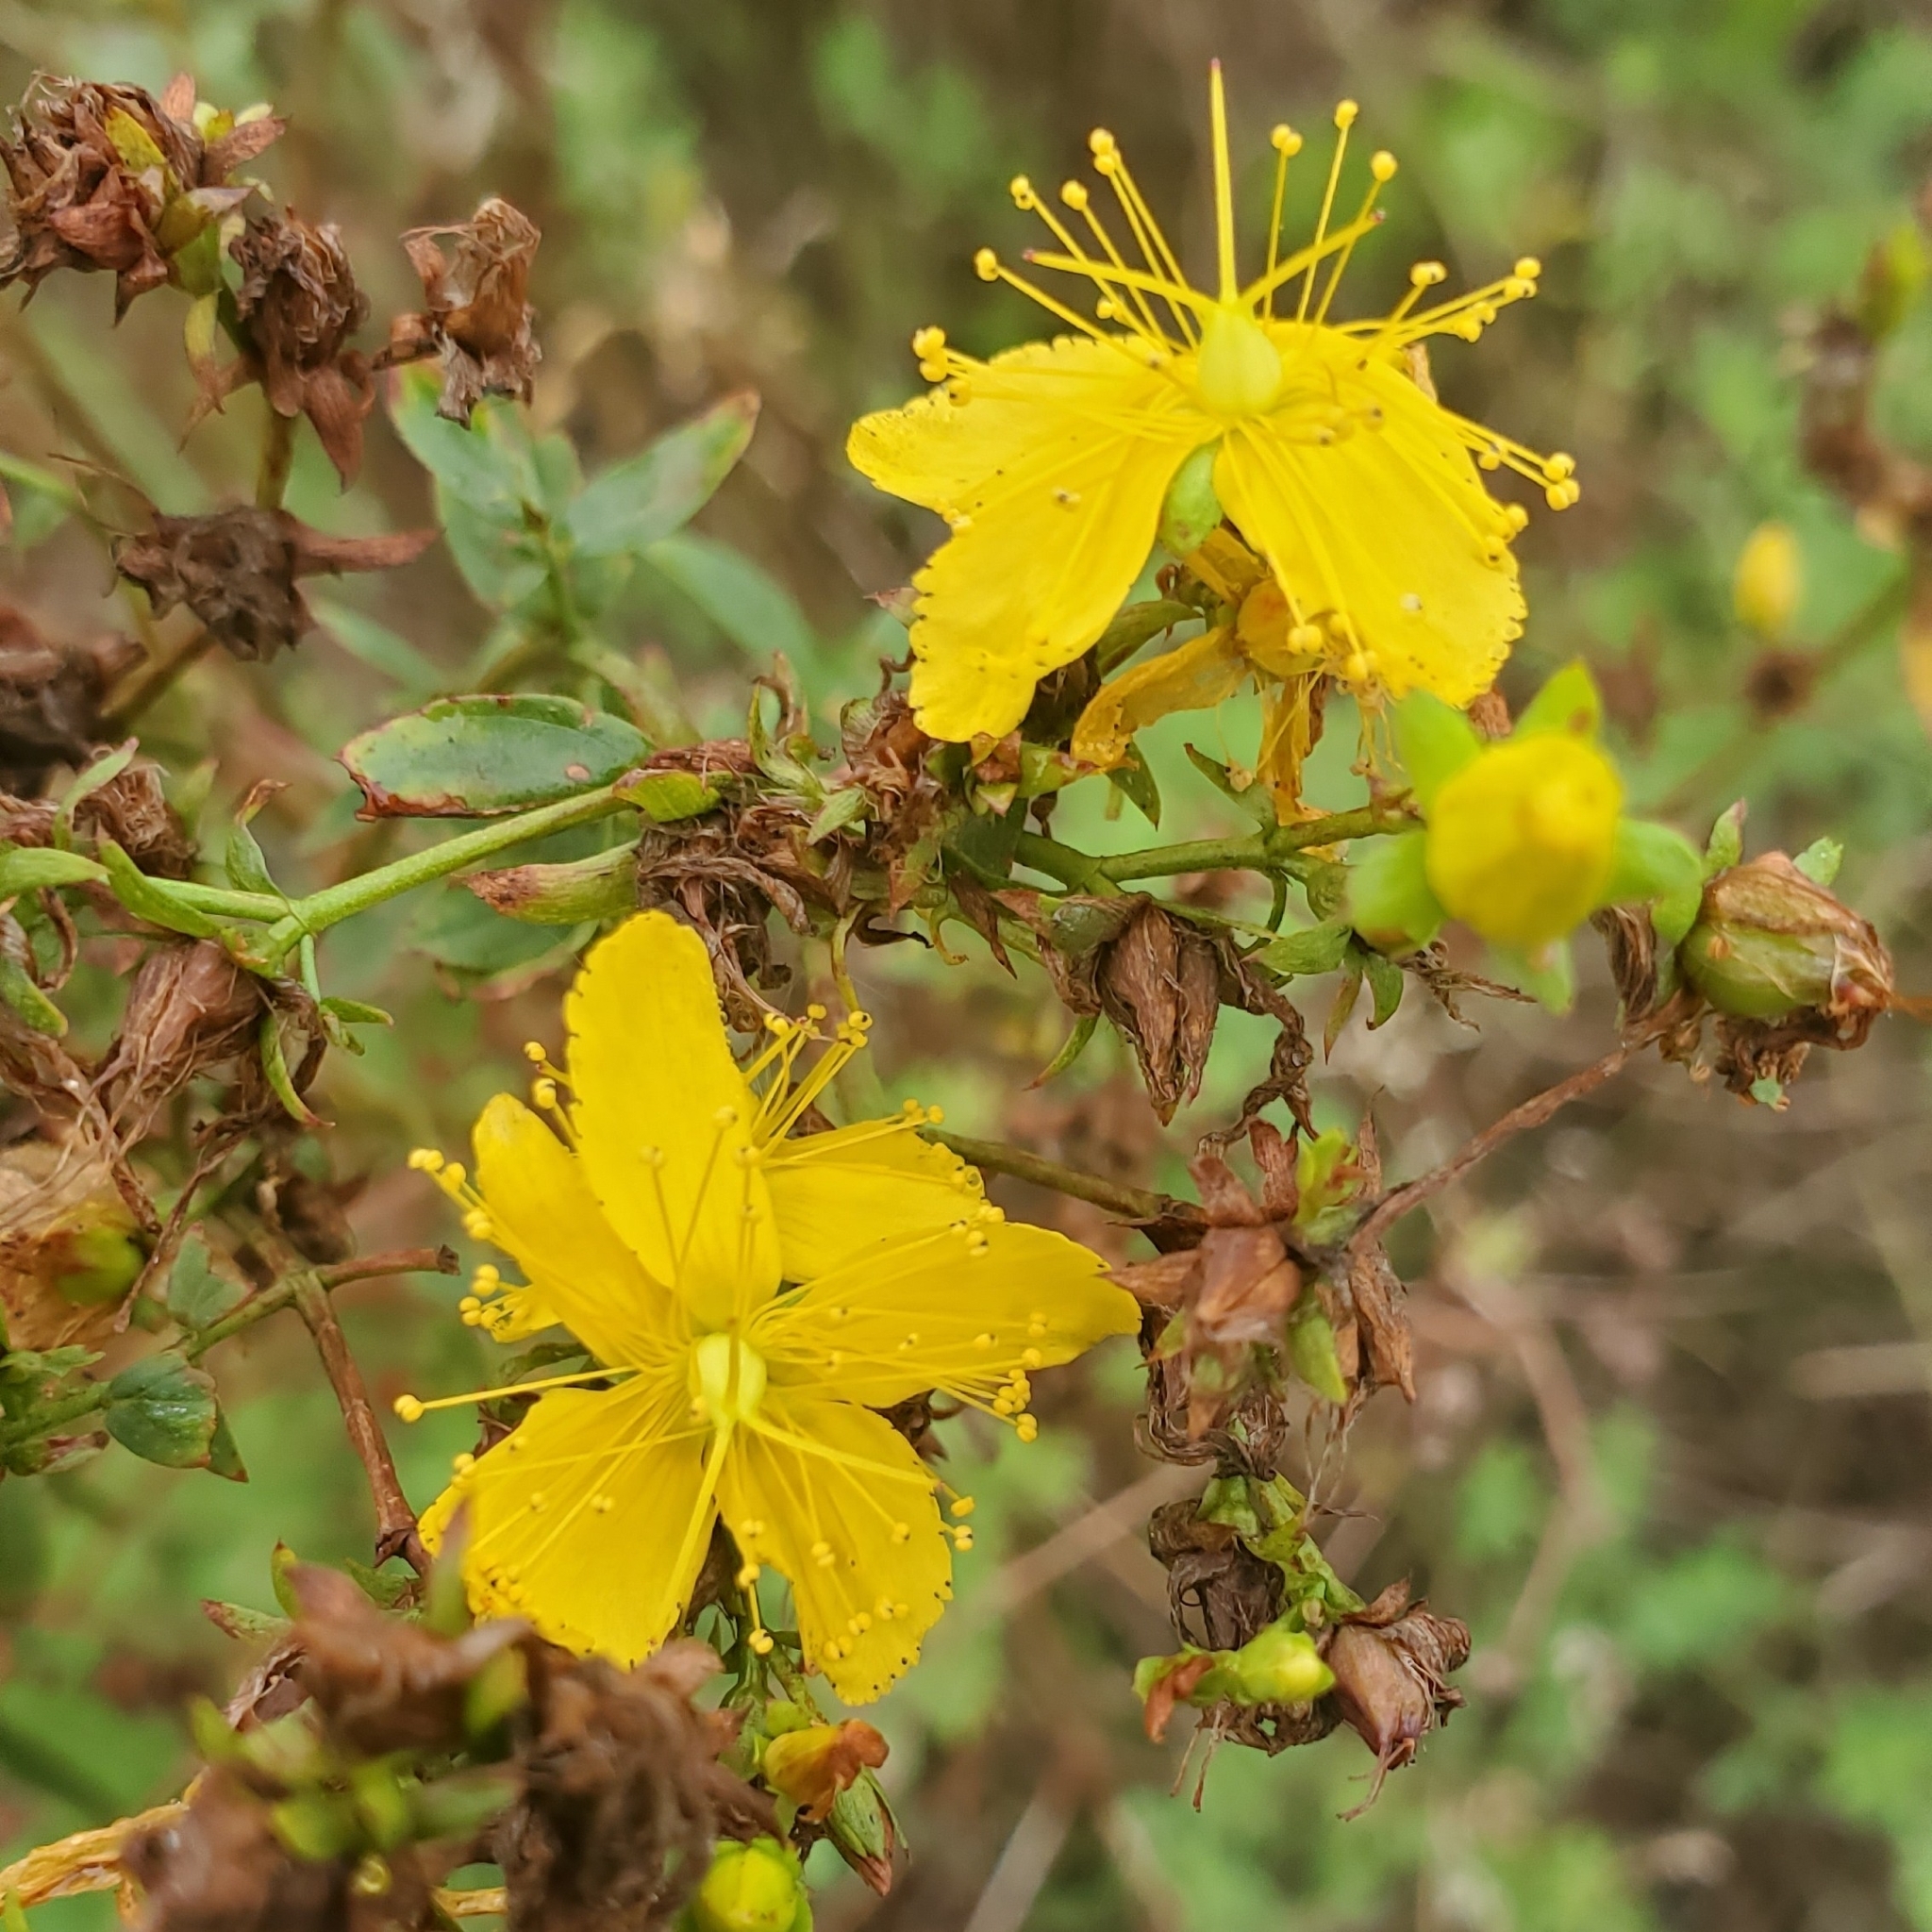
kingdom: Plantae
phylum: Tracheophyta
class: Magnoliopsida
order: Malpighiales
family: Hypericaceae
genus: Hypericum
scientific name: Hypericum perforatum
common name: Common st. johnswort
